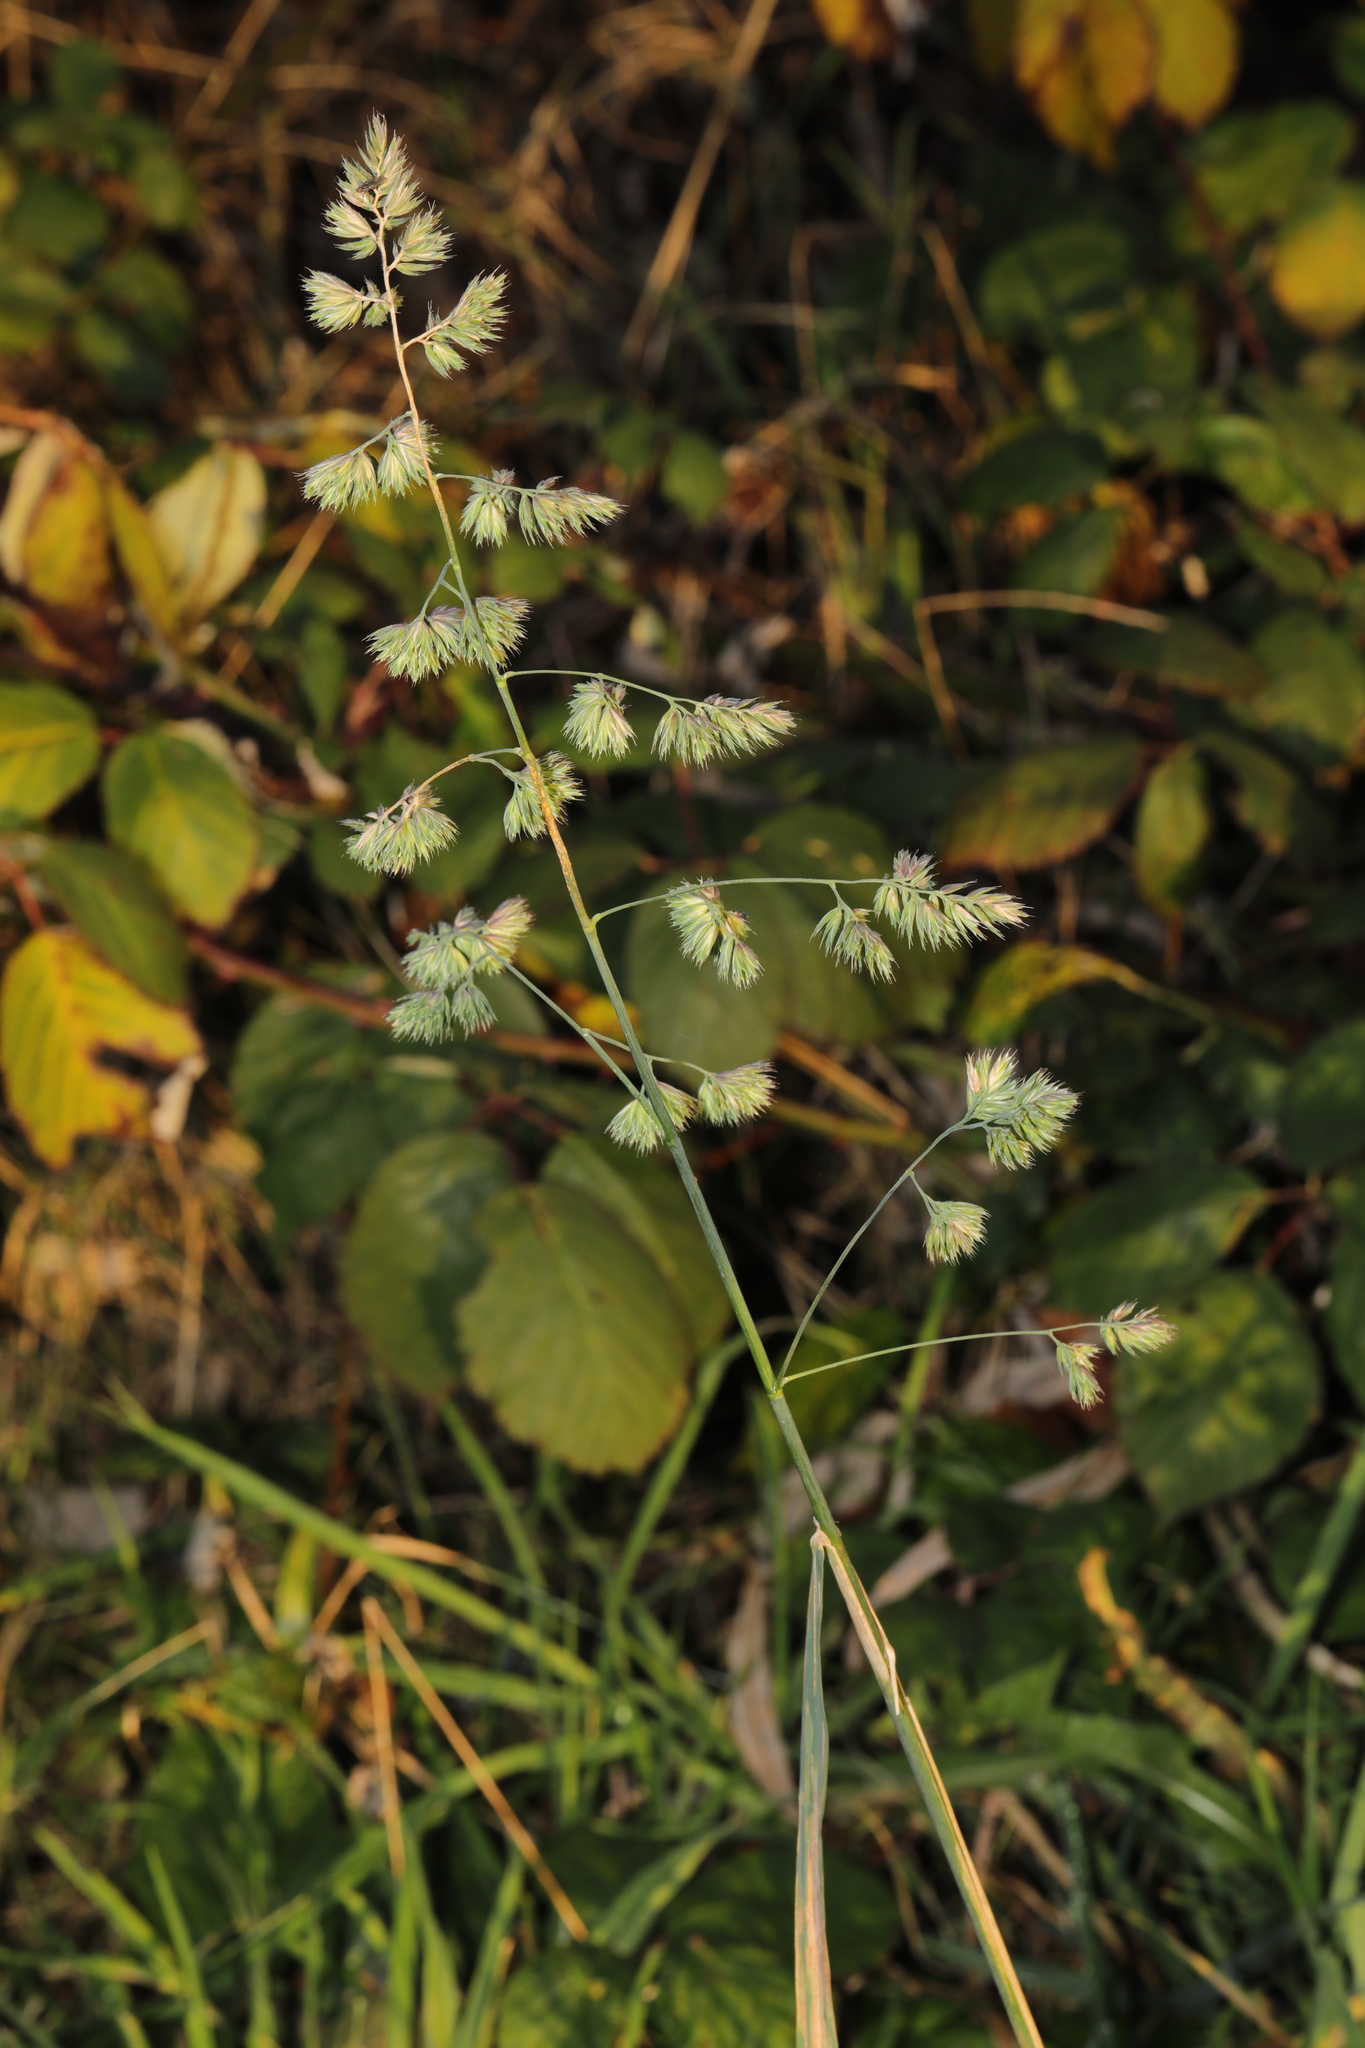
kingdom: Plantae
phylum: Tracheophyta
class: Liliopsida
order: Poales
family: Poaceae
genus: Dactylis
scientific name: Dactylis glomerata
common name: Orchardgrass
